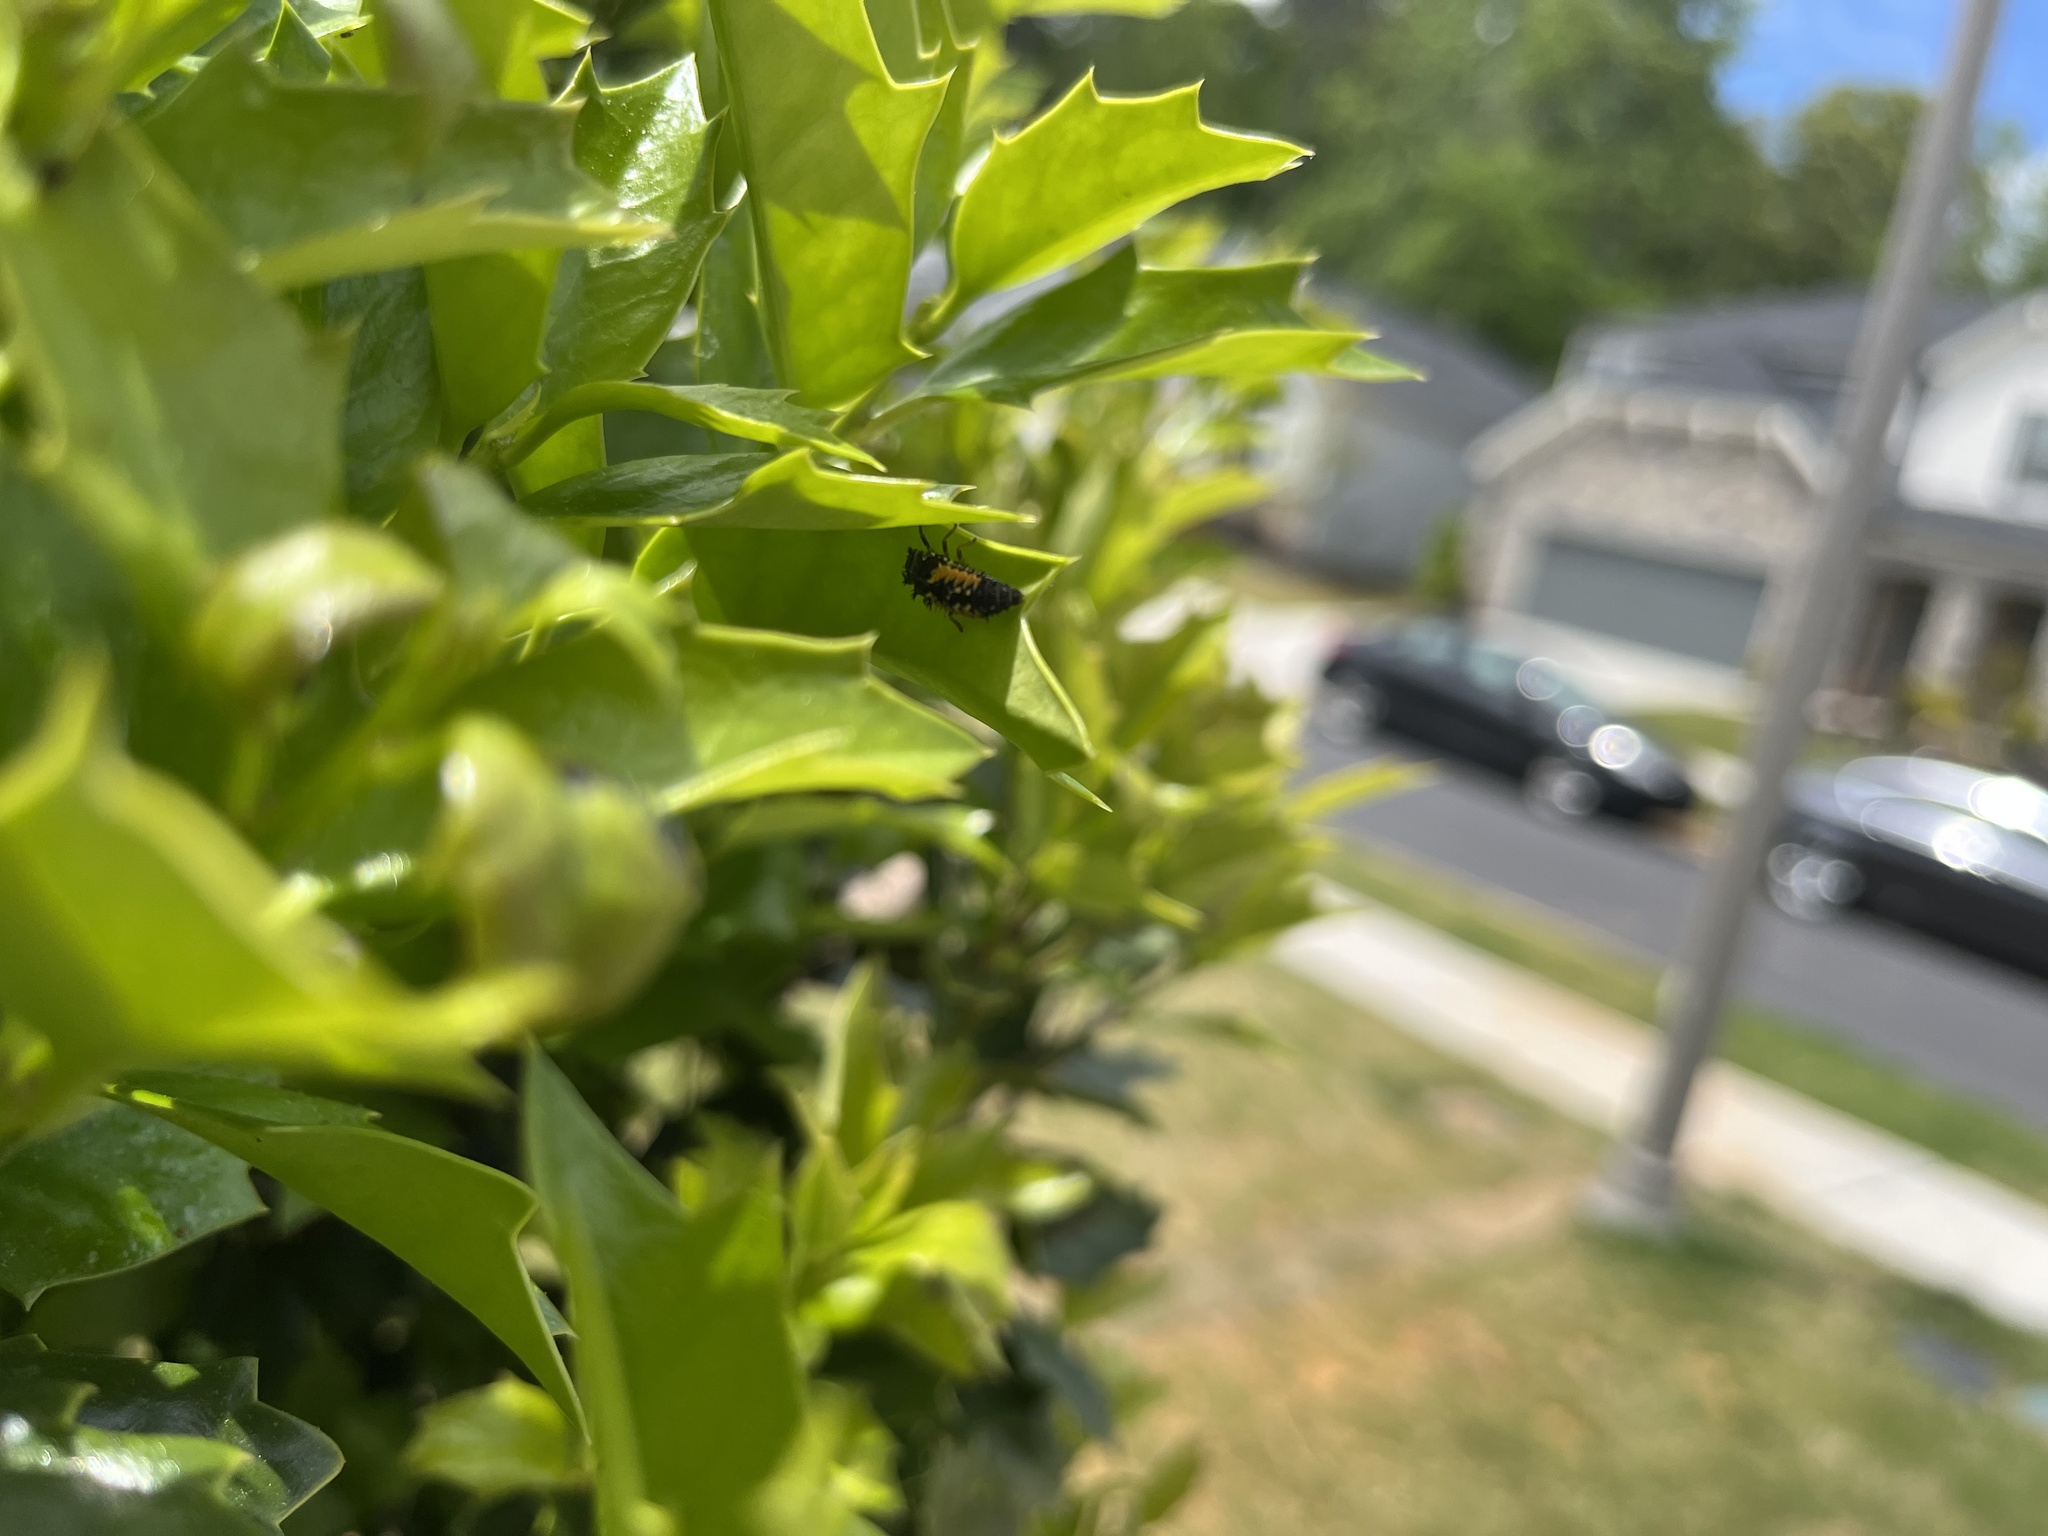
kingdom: Animalia
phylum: Arthropoda
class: Insecta
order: Coleoptera
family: Coccinellidae
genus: Harmonia
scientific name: Harmonia axyridis
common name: Harlequin ladybird
